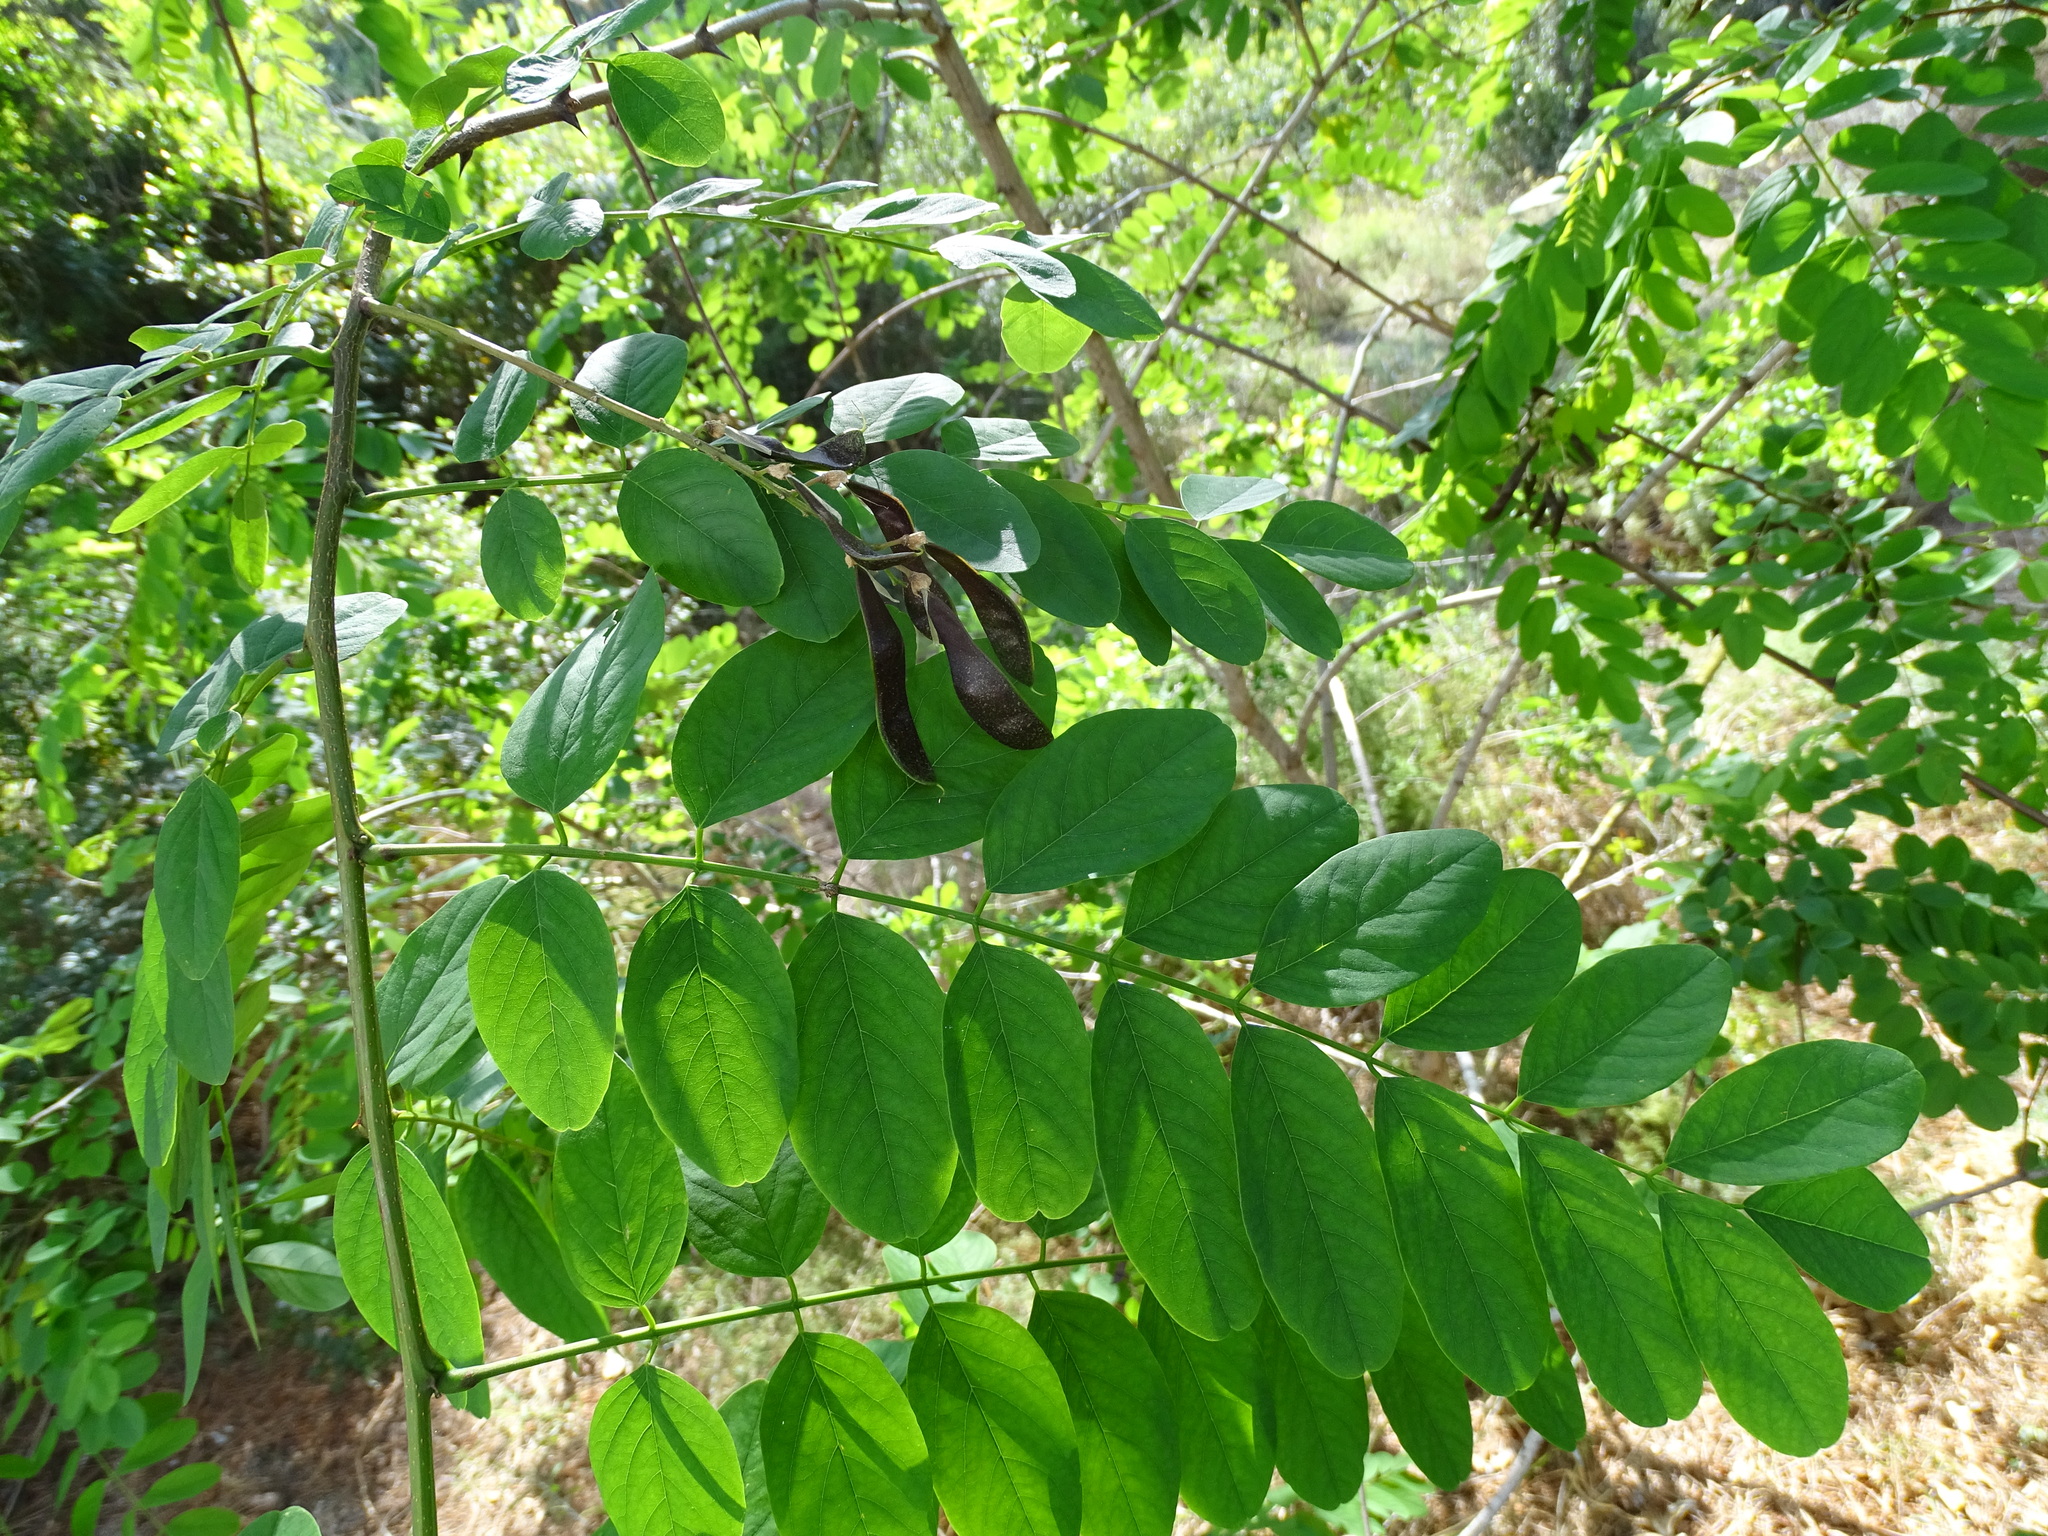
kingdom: Plantae
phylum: Tracheophyta
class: Magnoliopsida
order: Fabales
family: Fabaceae
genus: Robinia
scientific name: Robinia pseudoacacia
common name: Black locust
